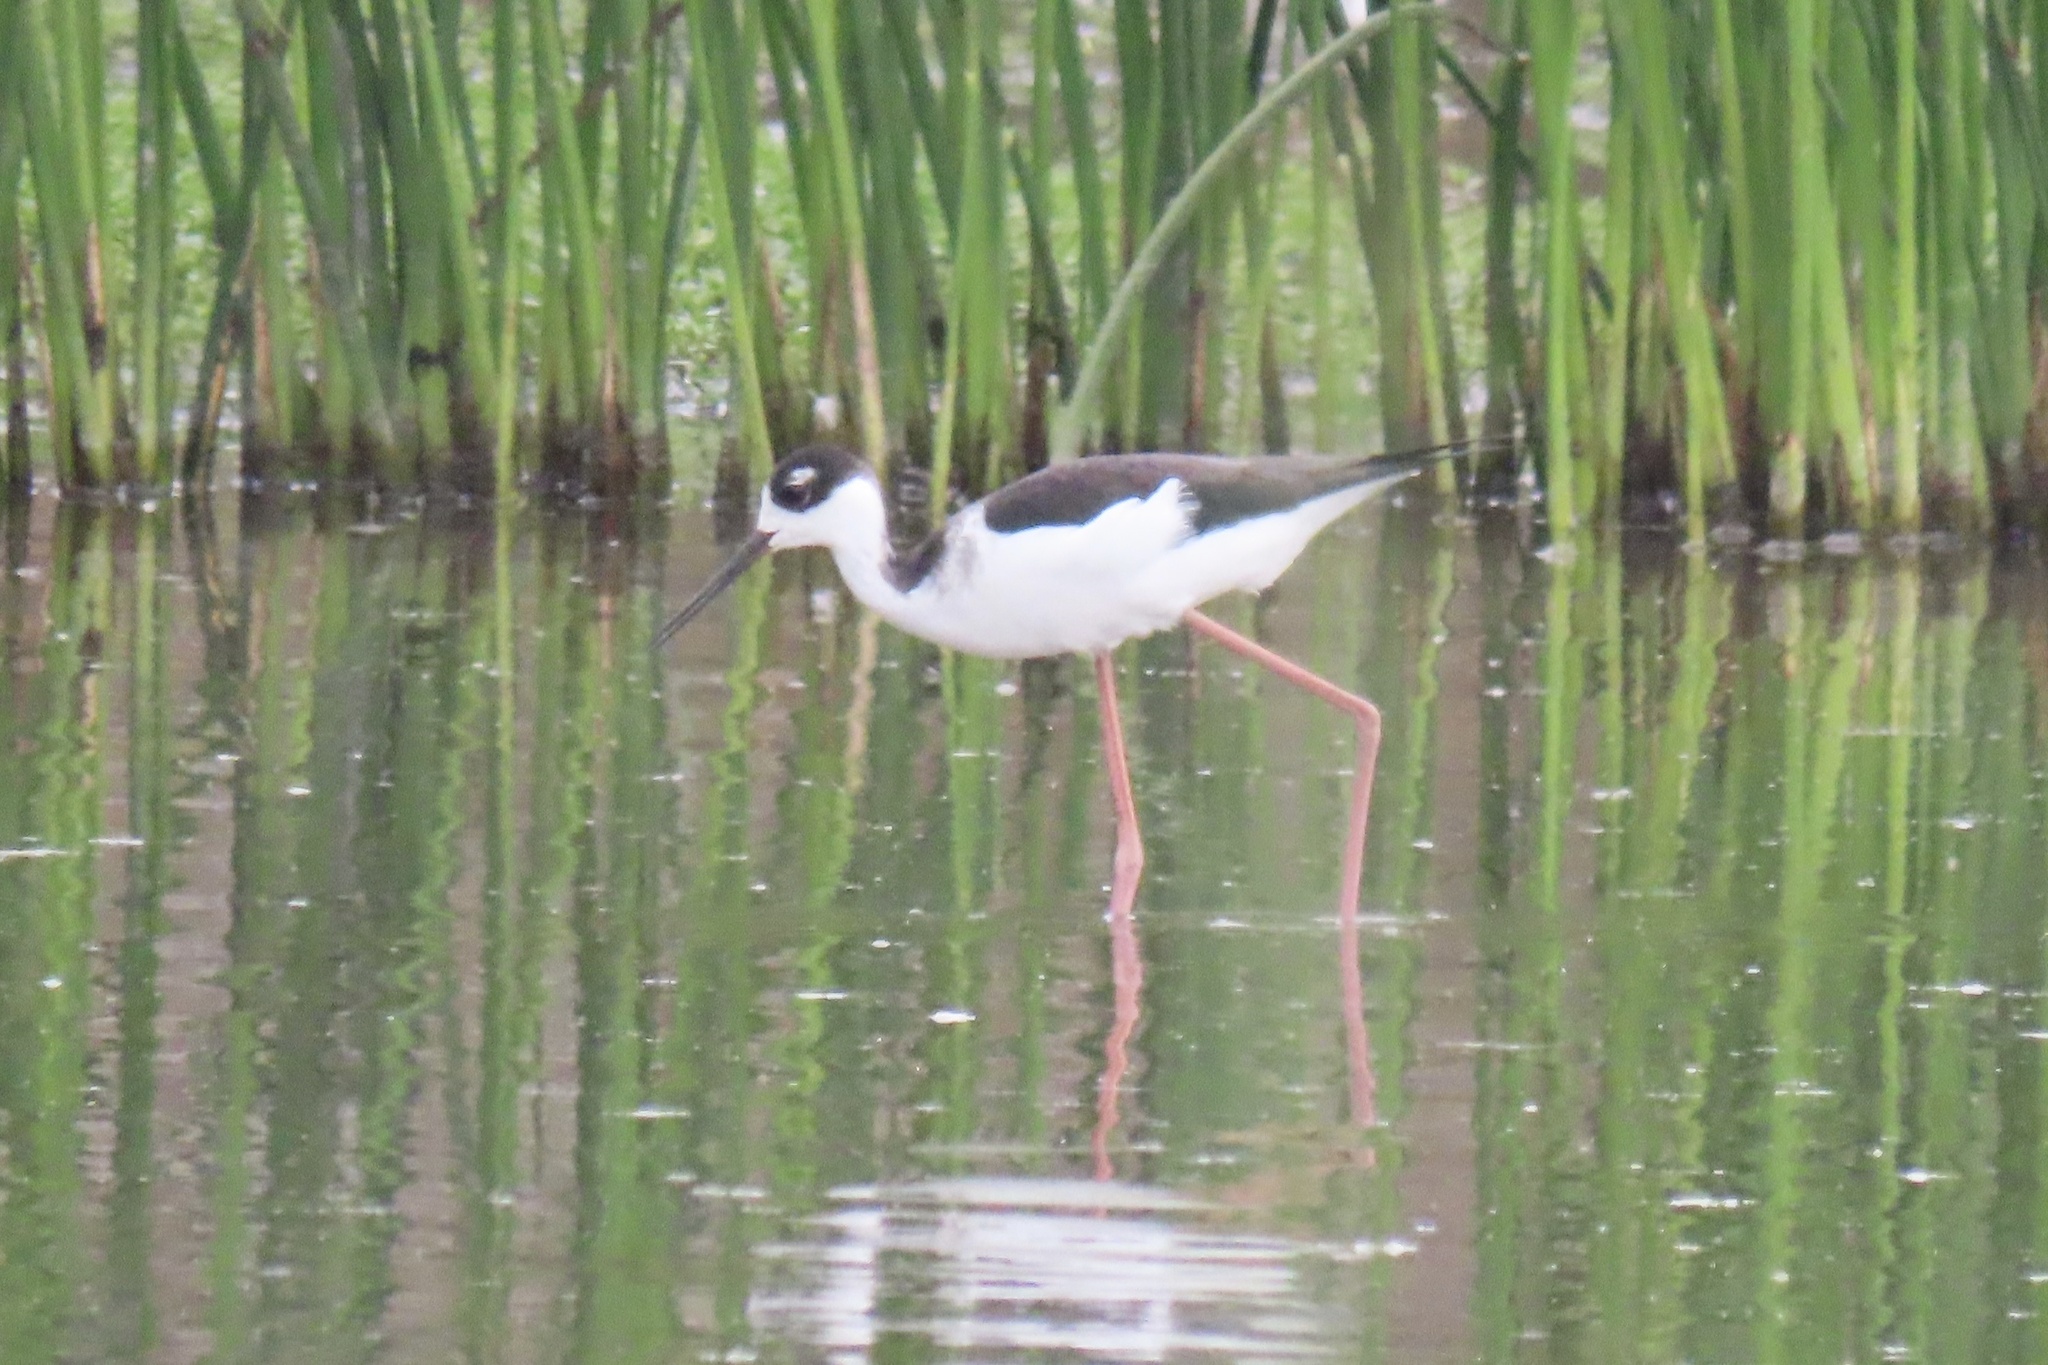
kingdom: Animalia
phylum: Chordata
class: Aves
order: Charadriiformes
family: Recurvirostridae
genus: Himantopus
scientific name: Himantopus mexicanus
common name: Black-necked stilt
